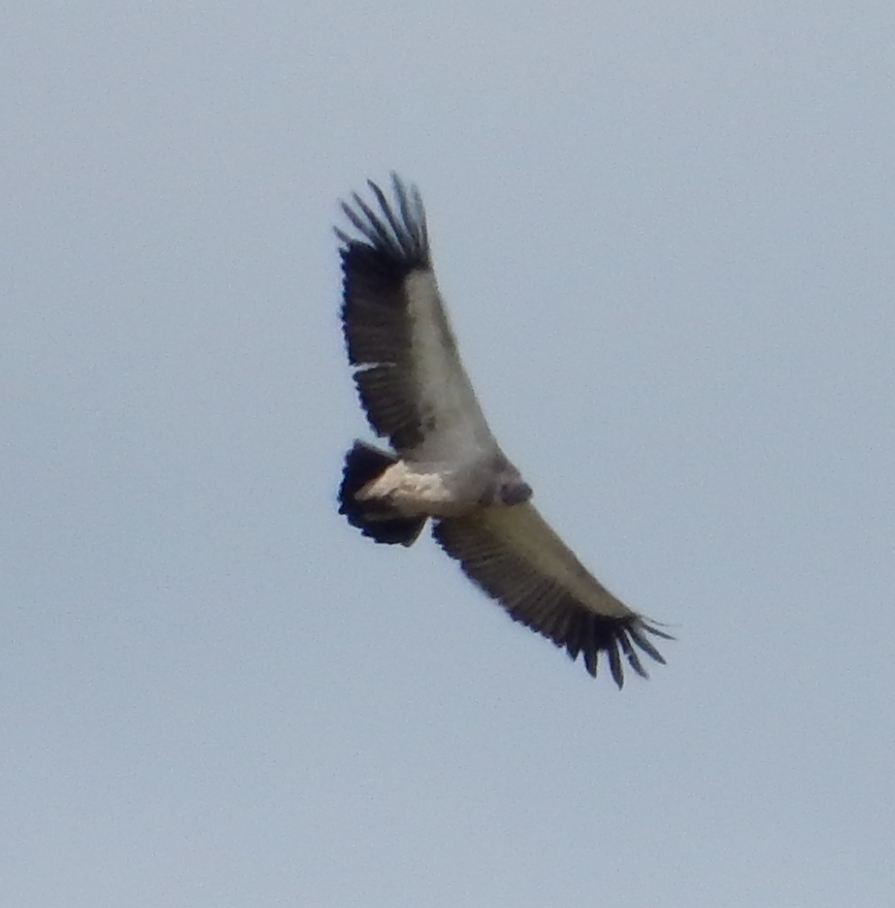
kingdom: Animalia
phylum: Chordata
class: Aves
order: Accipitriformes
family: Accipitridae
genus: Gyps
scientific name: Gyps coprotheres
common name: Cape vulture
